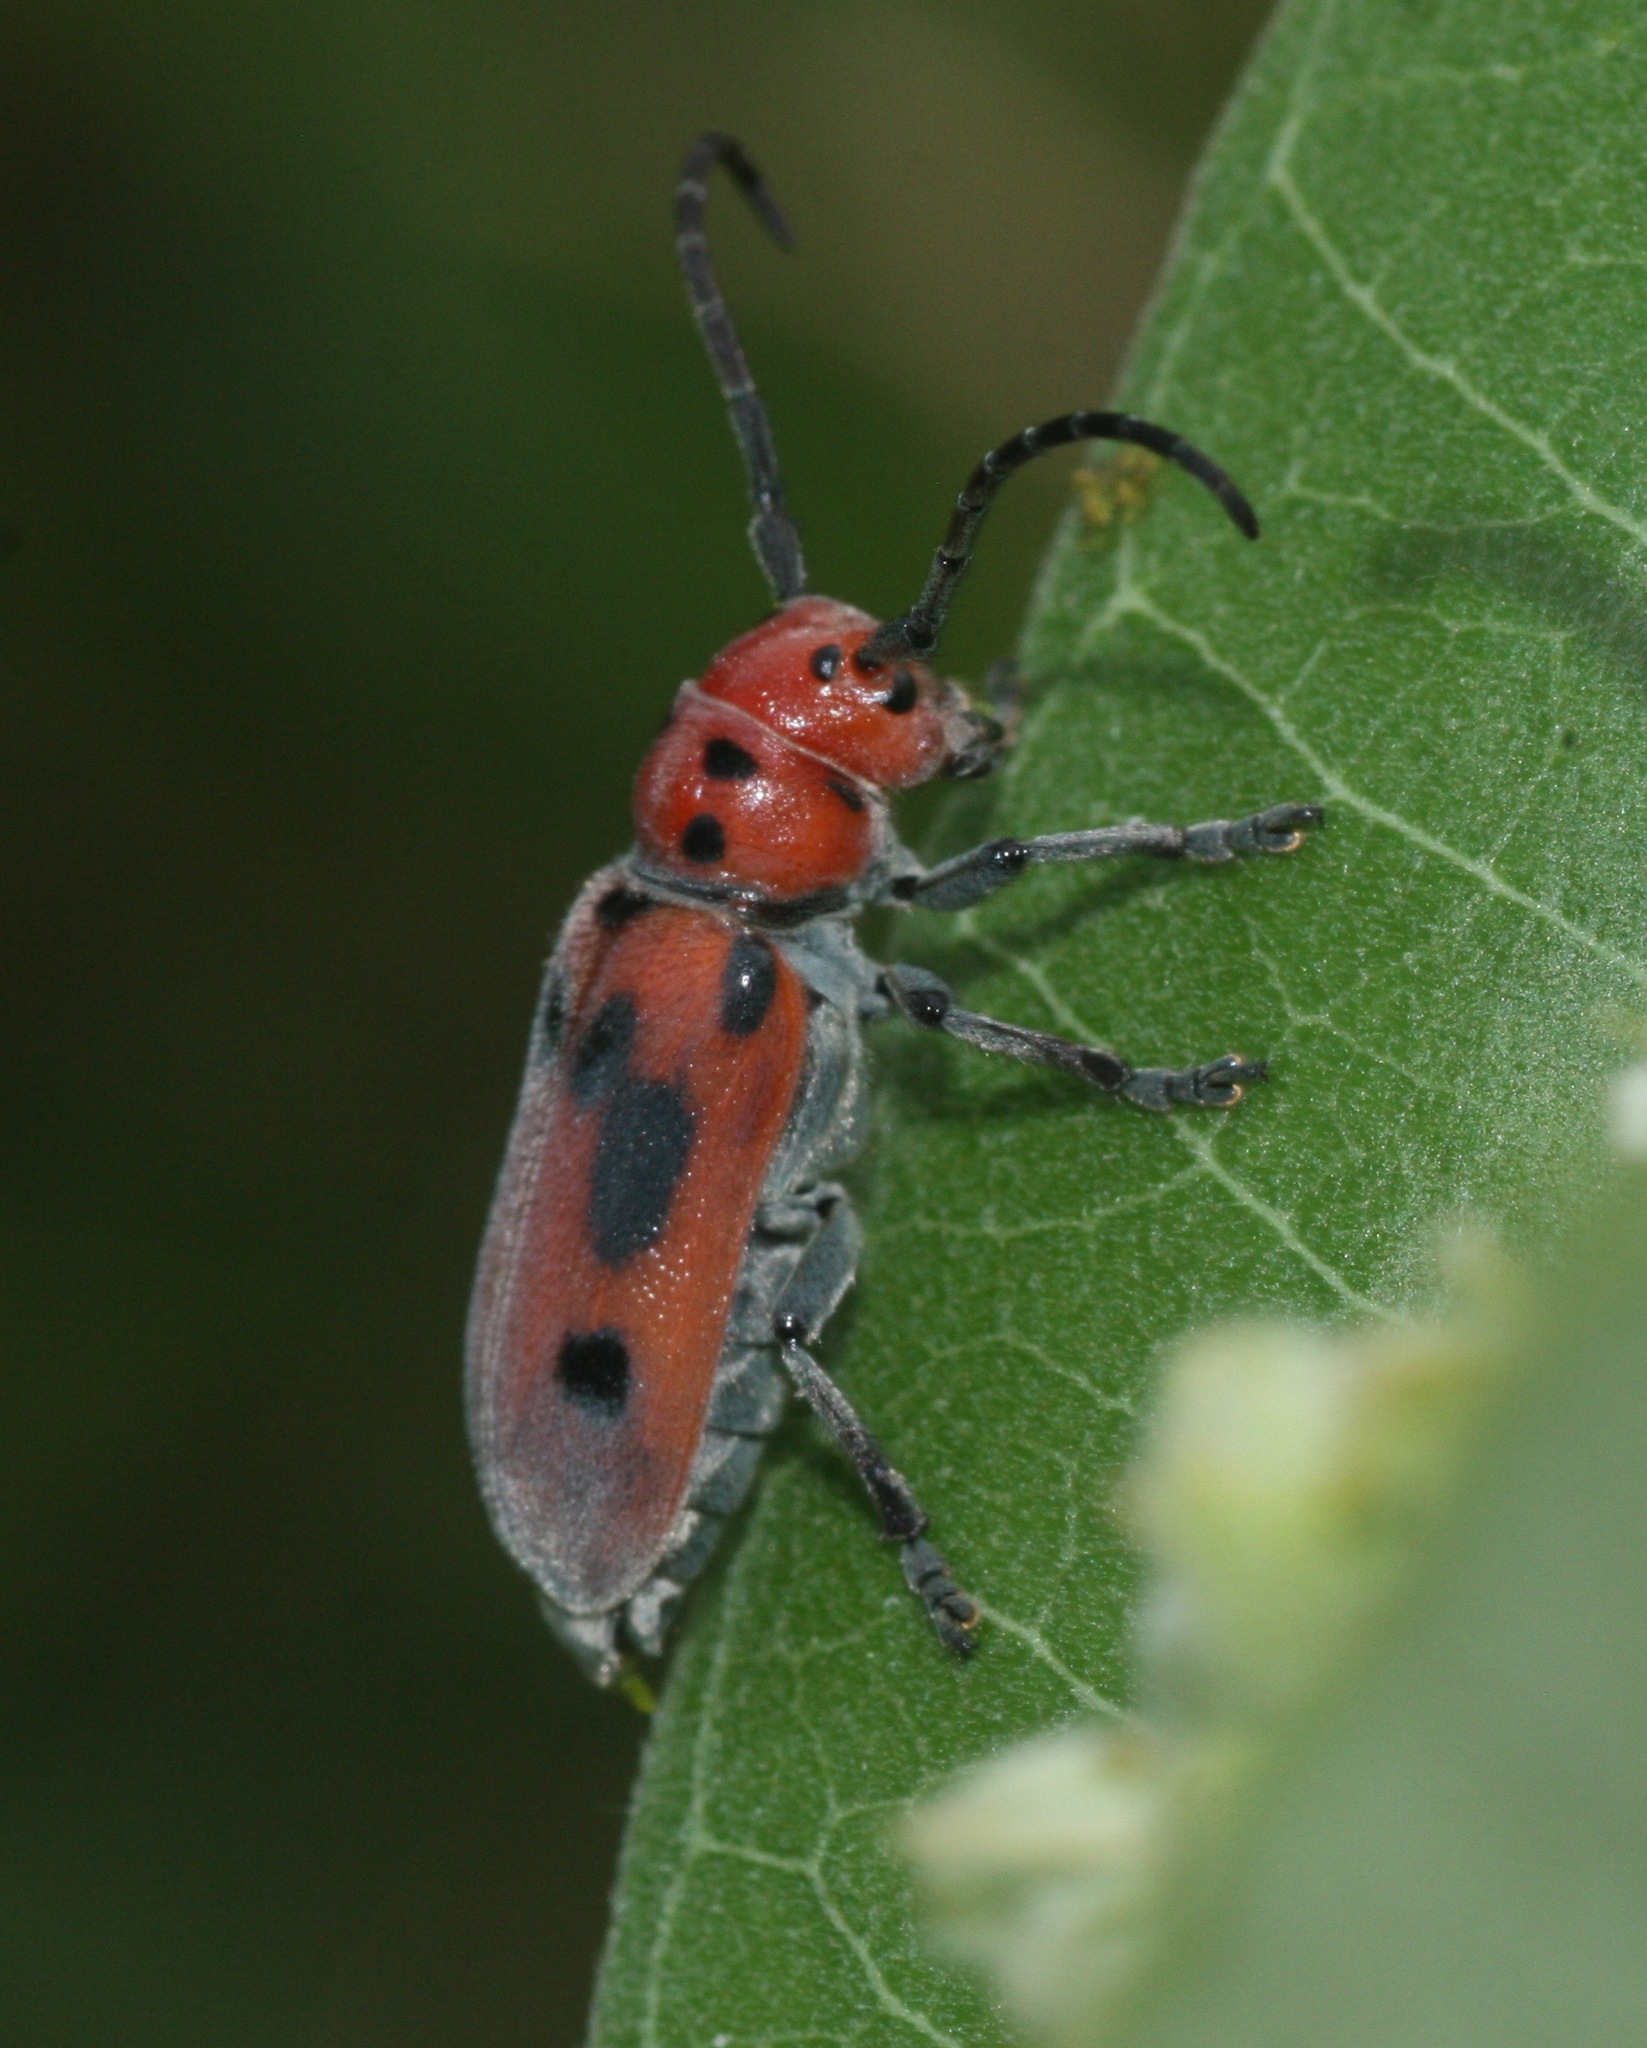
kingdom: Animalia
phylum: Arthropoda
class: Insecta
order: Coleoptera
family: Cerambycidae
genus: Tetraopes
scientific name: Tetraopes tetrophthalmus
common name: Red milkweed beetle
